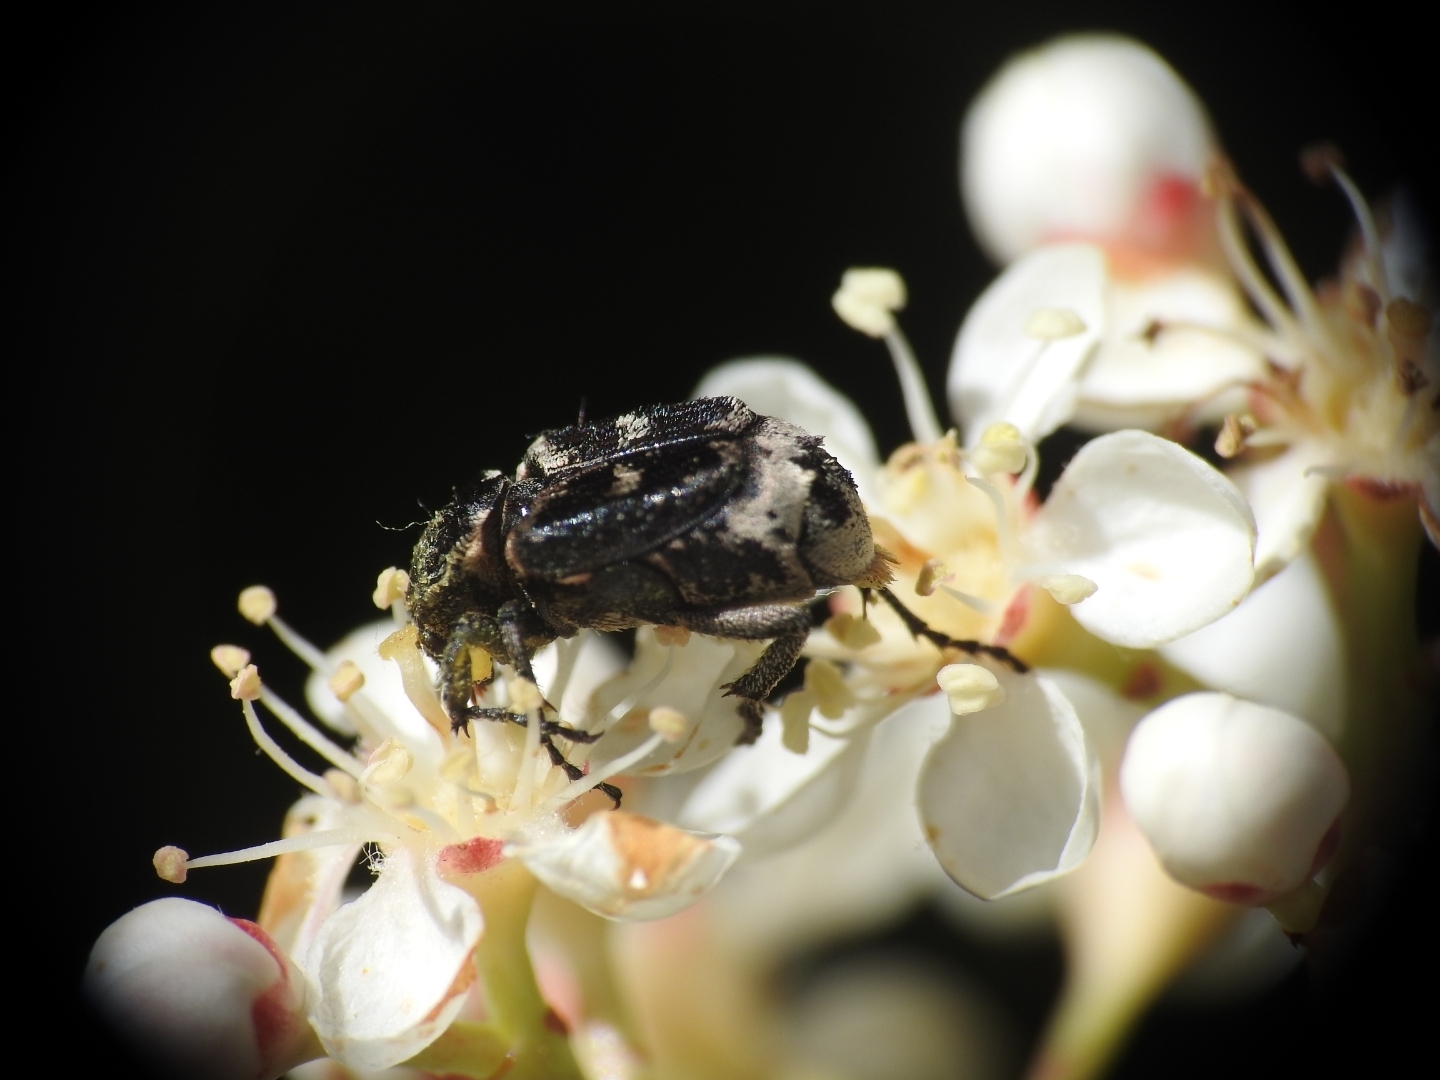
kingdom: Animalia
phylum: Arthropoda
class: Insecta
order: Coleoptera
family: Scarabaeidae
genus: Valgus
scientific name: Valgus hemipterus
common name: Bug flower chafer
